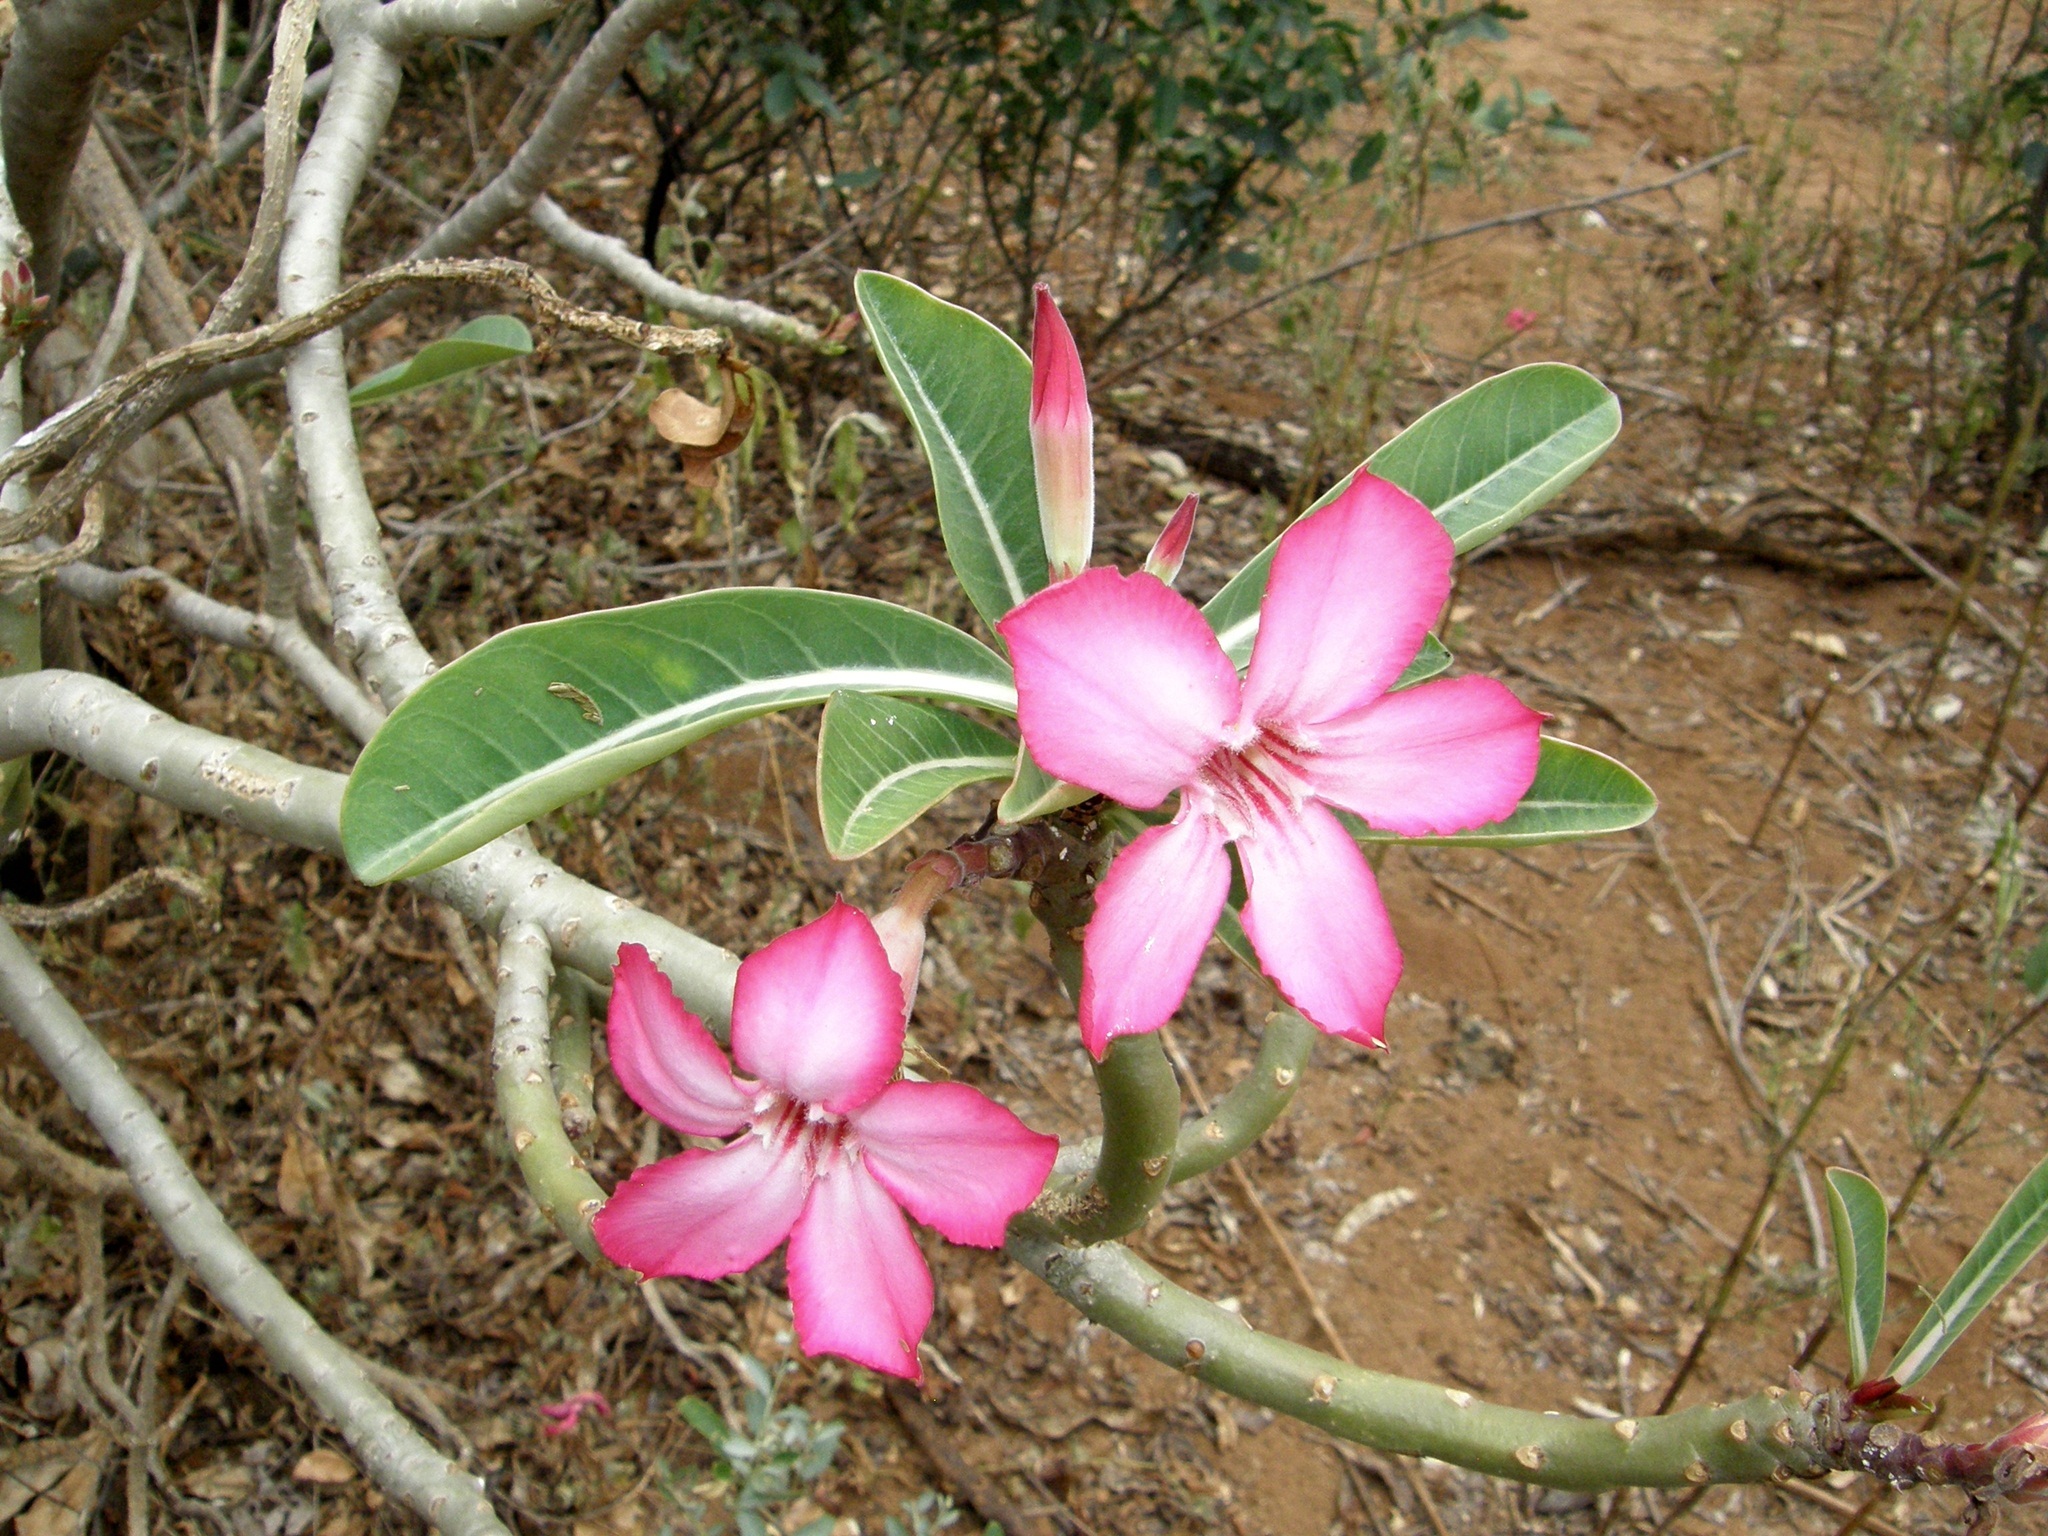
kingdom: Plantae
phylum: Tracheophyta
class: Magnoliopsida
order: Gentianales
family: Apocynaceae
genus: Adenium
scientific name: Adenium obesum
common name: Desert-rose
